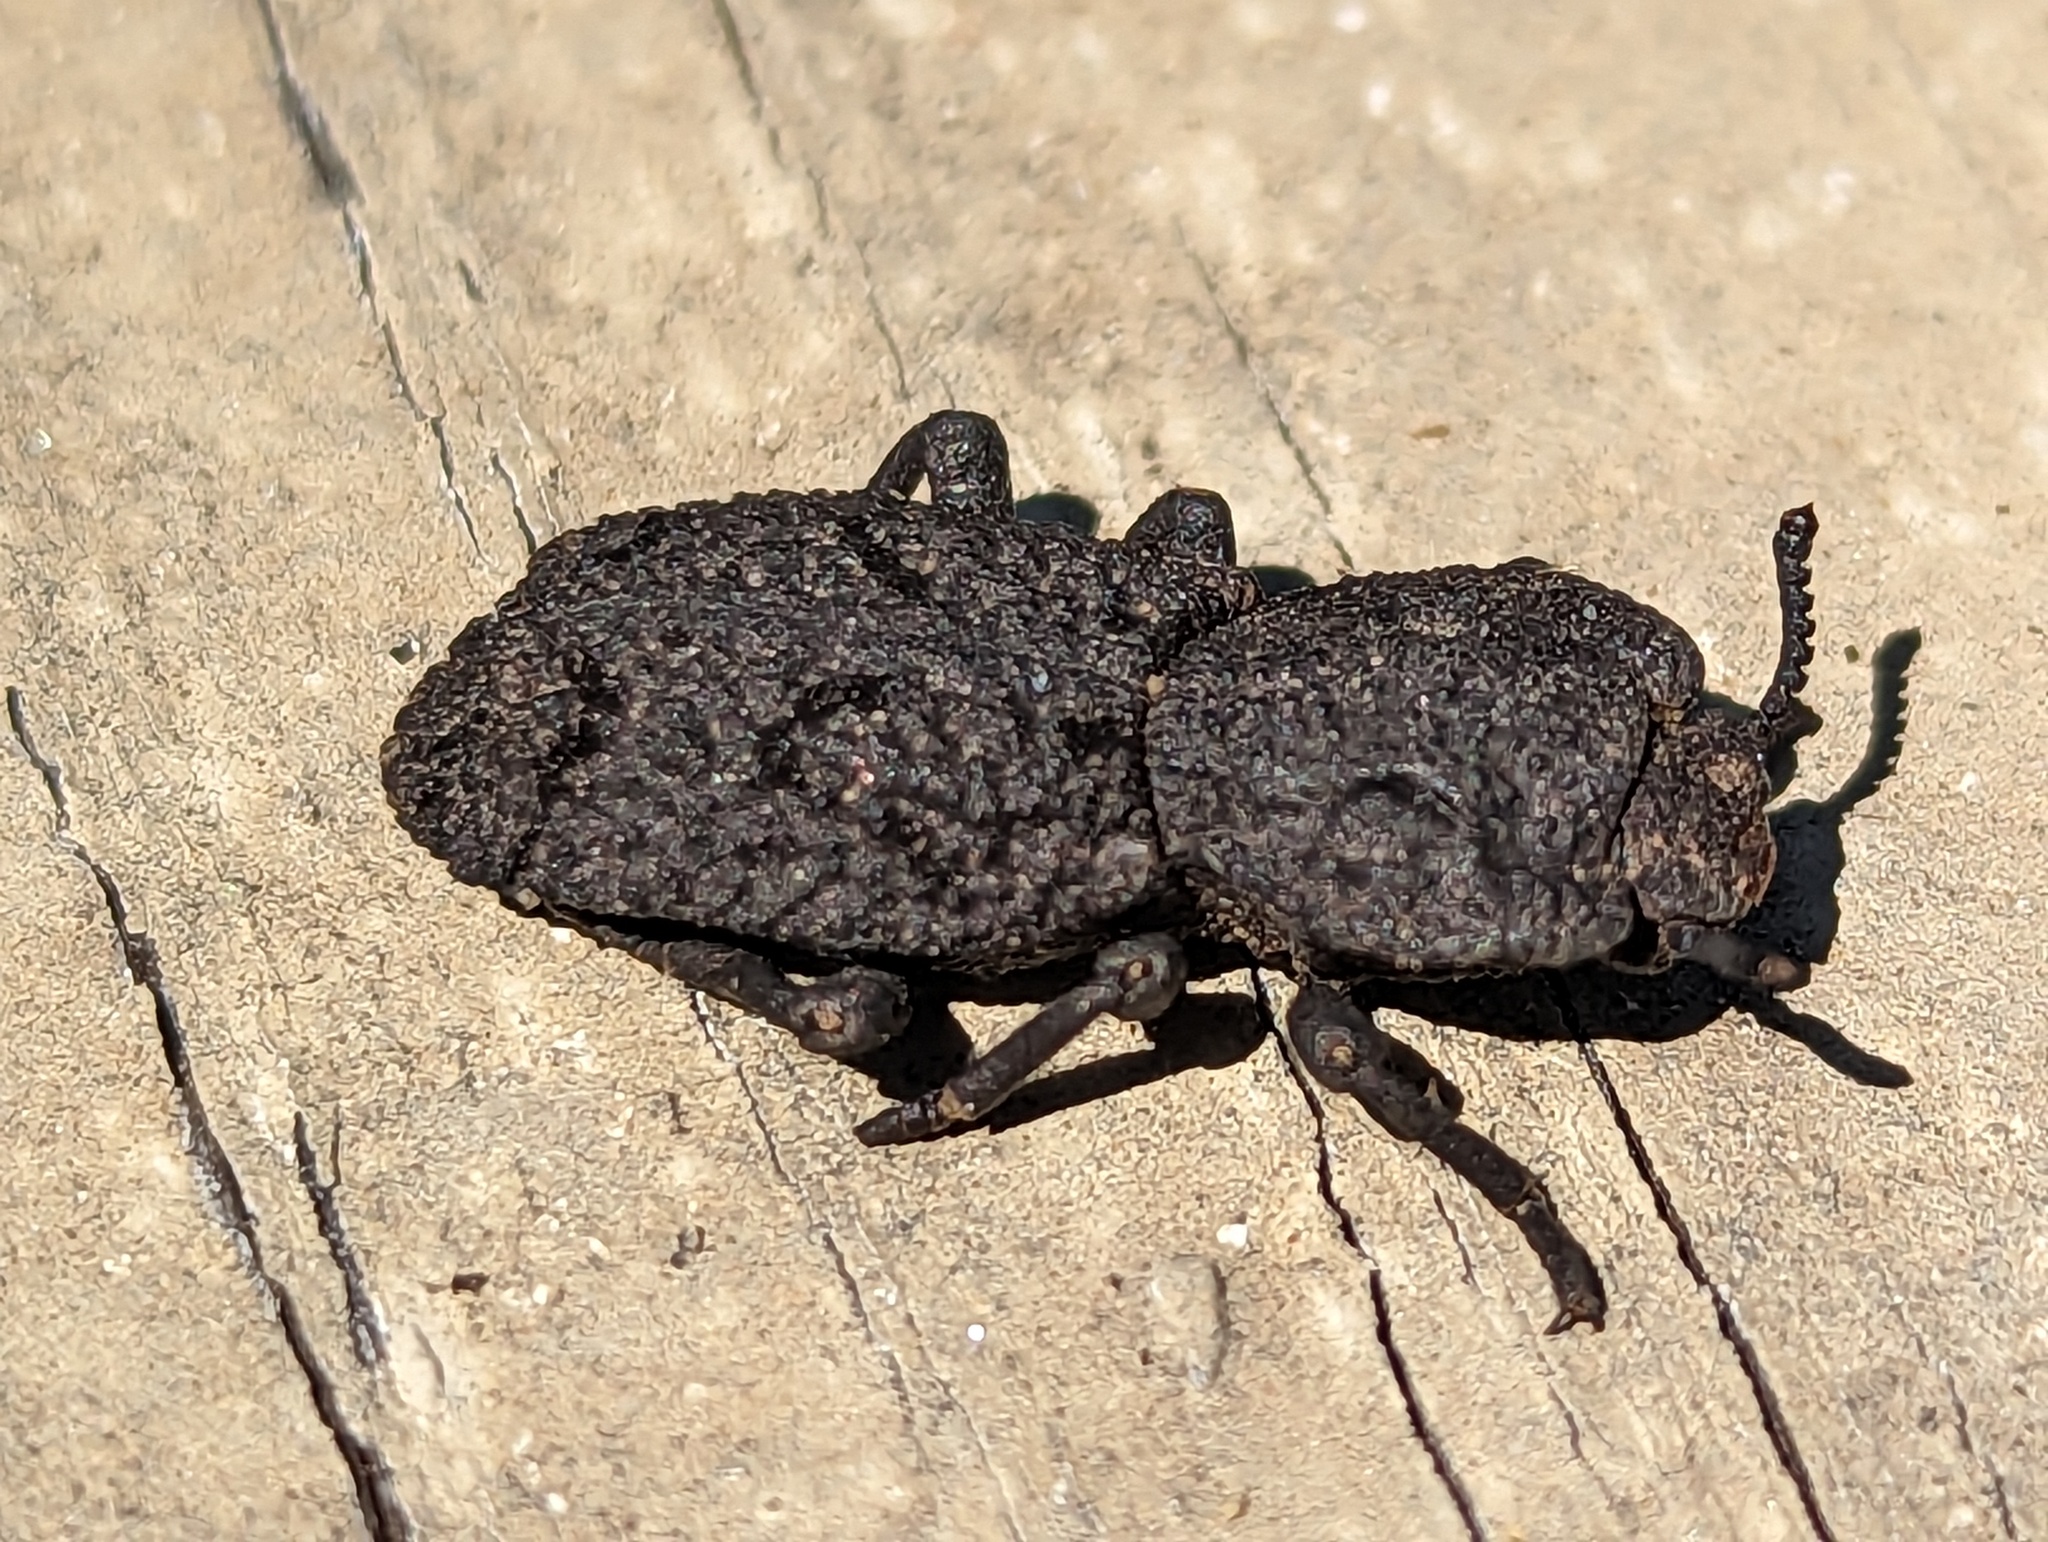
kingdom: Animalia
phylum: Arthropoda
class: Insecta
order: Coleoptera
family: Zopheridae
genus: Phloeodes
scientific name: Phloeodes diabolicus
